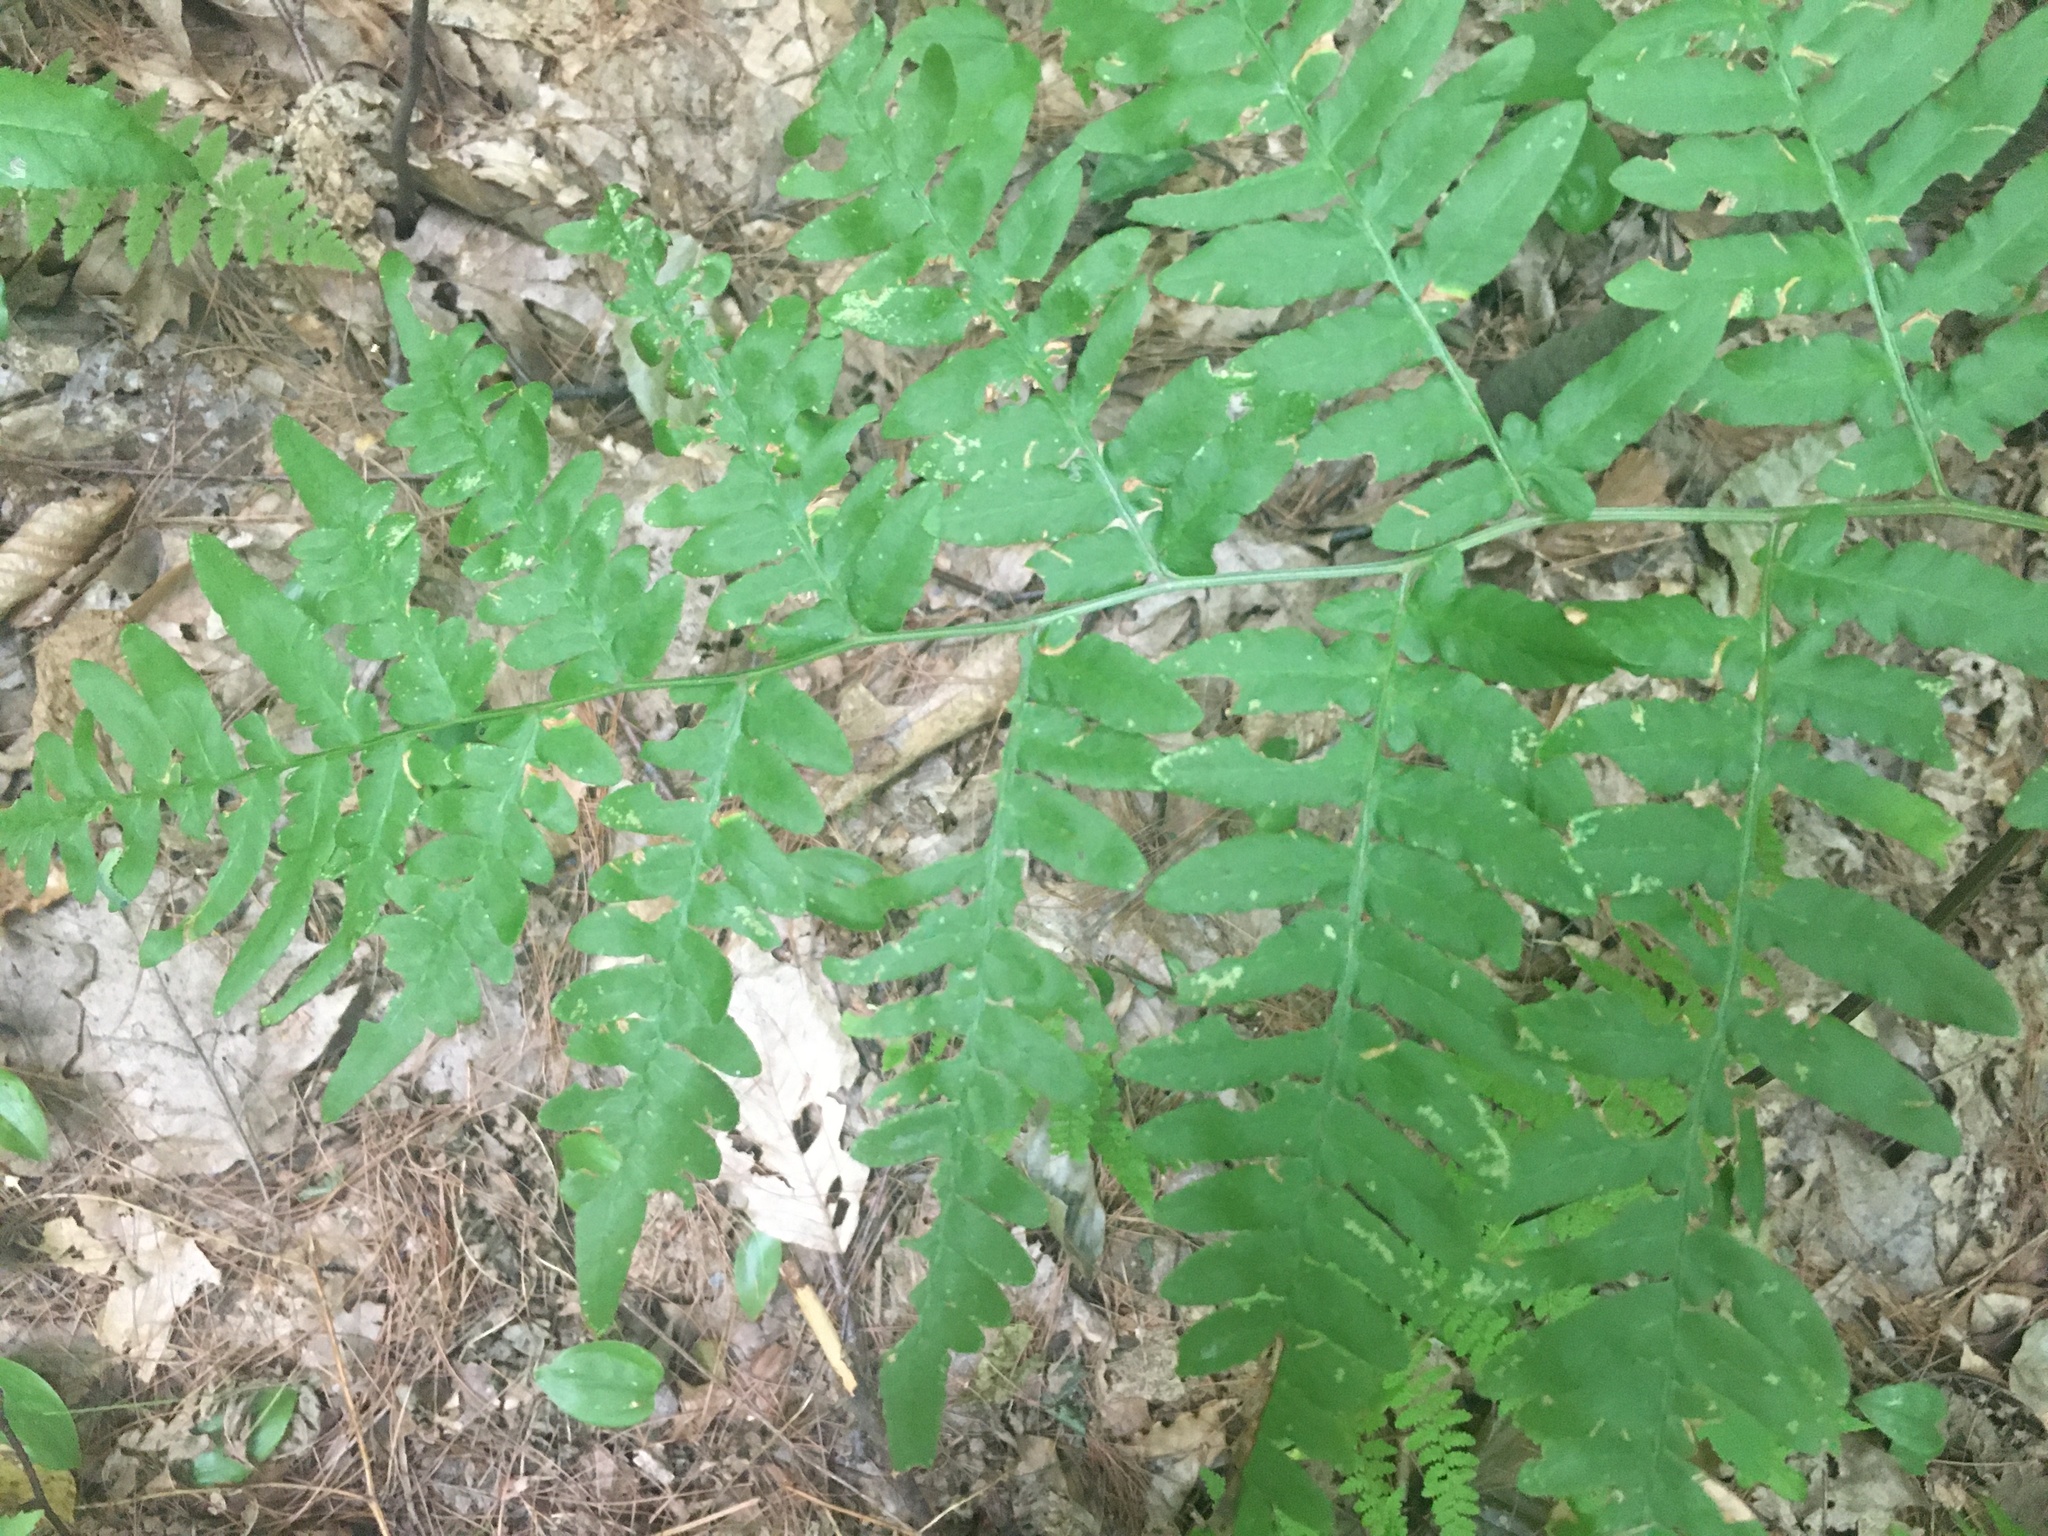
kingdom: Plantae
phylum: Tracheophyta
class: Polypodiopsida
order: Polypodiales
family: Dennstaedtiaceae
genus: Pteridium
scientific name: Pteridium aquilinum
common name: Bracken
